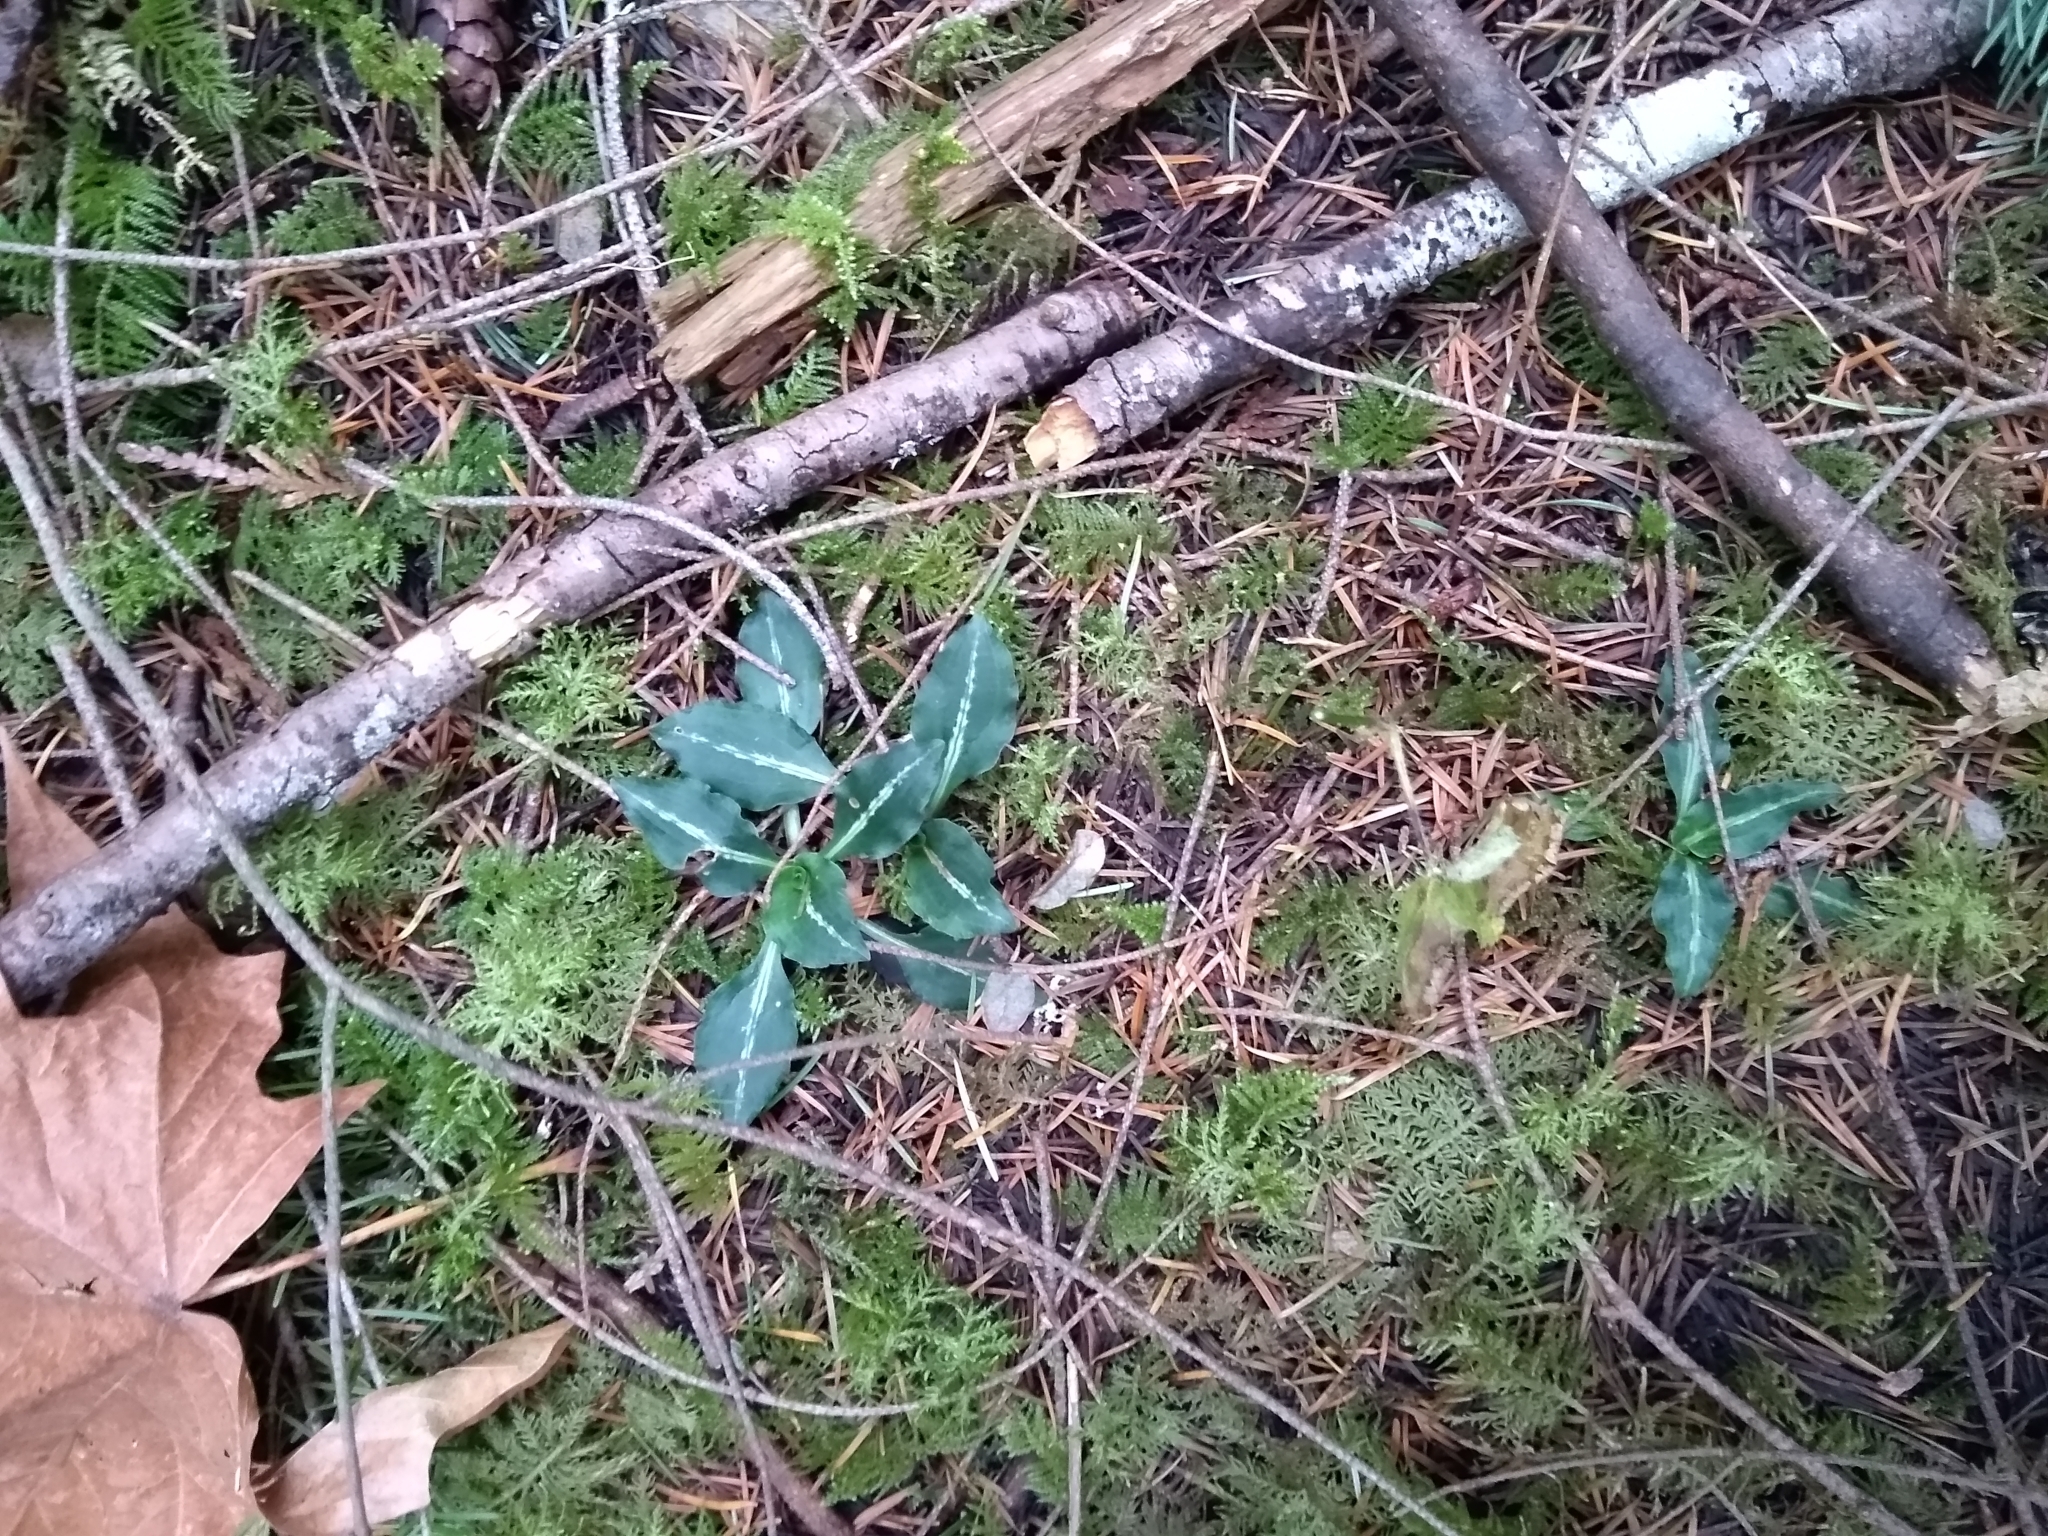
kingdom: Plantae
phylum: Tracheophyta
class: Liliopsida
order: Asparagales
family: Orchidaceae
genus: Goodyera
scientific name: Goodyera oblongifolia
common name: Giant rattlesnake-plantain
